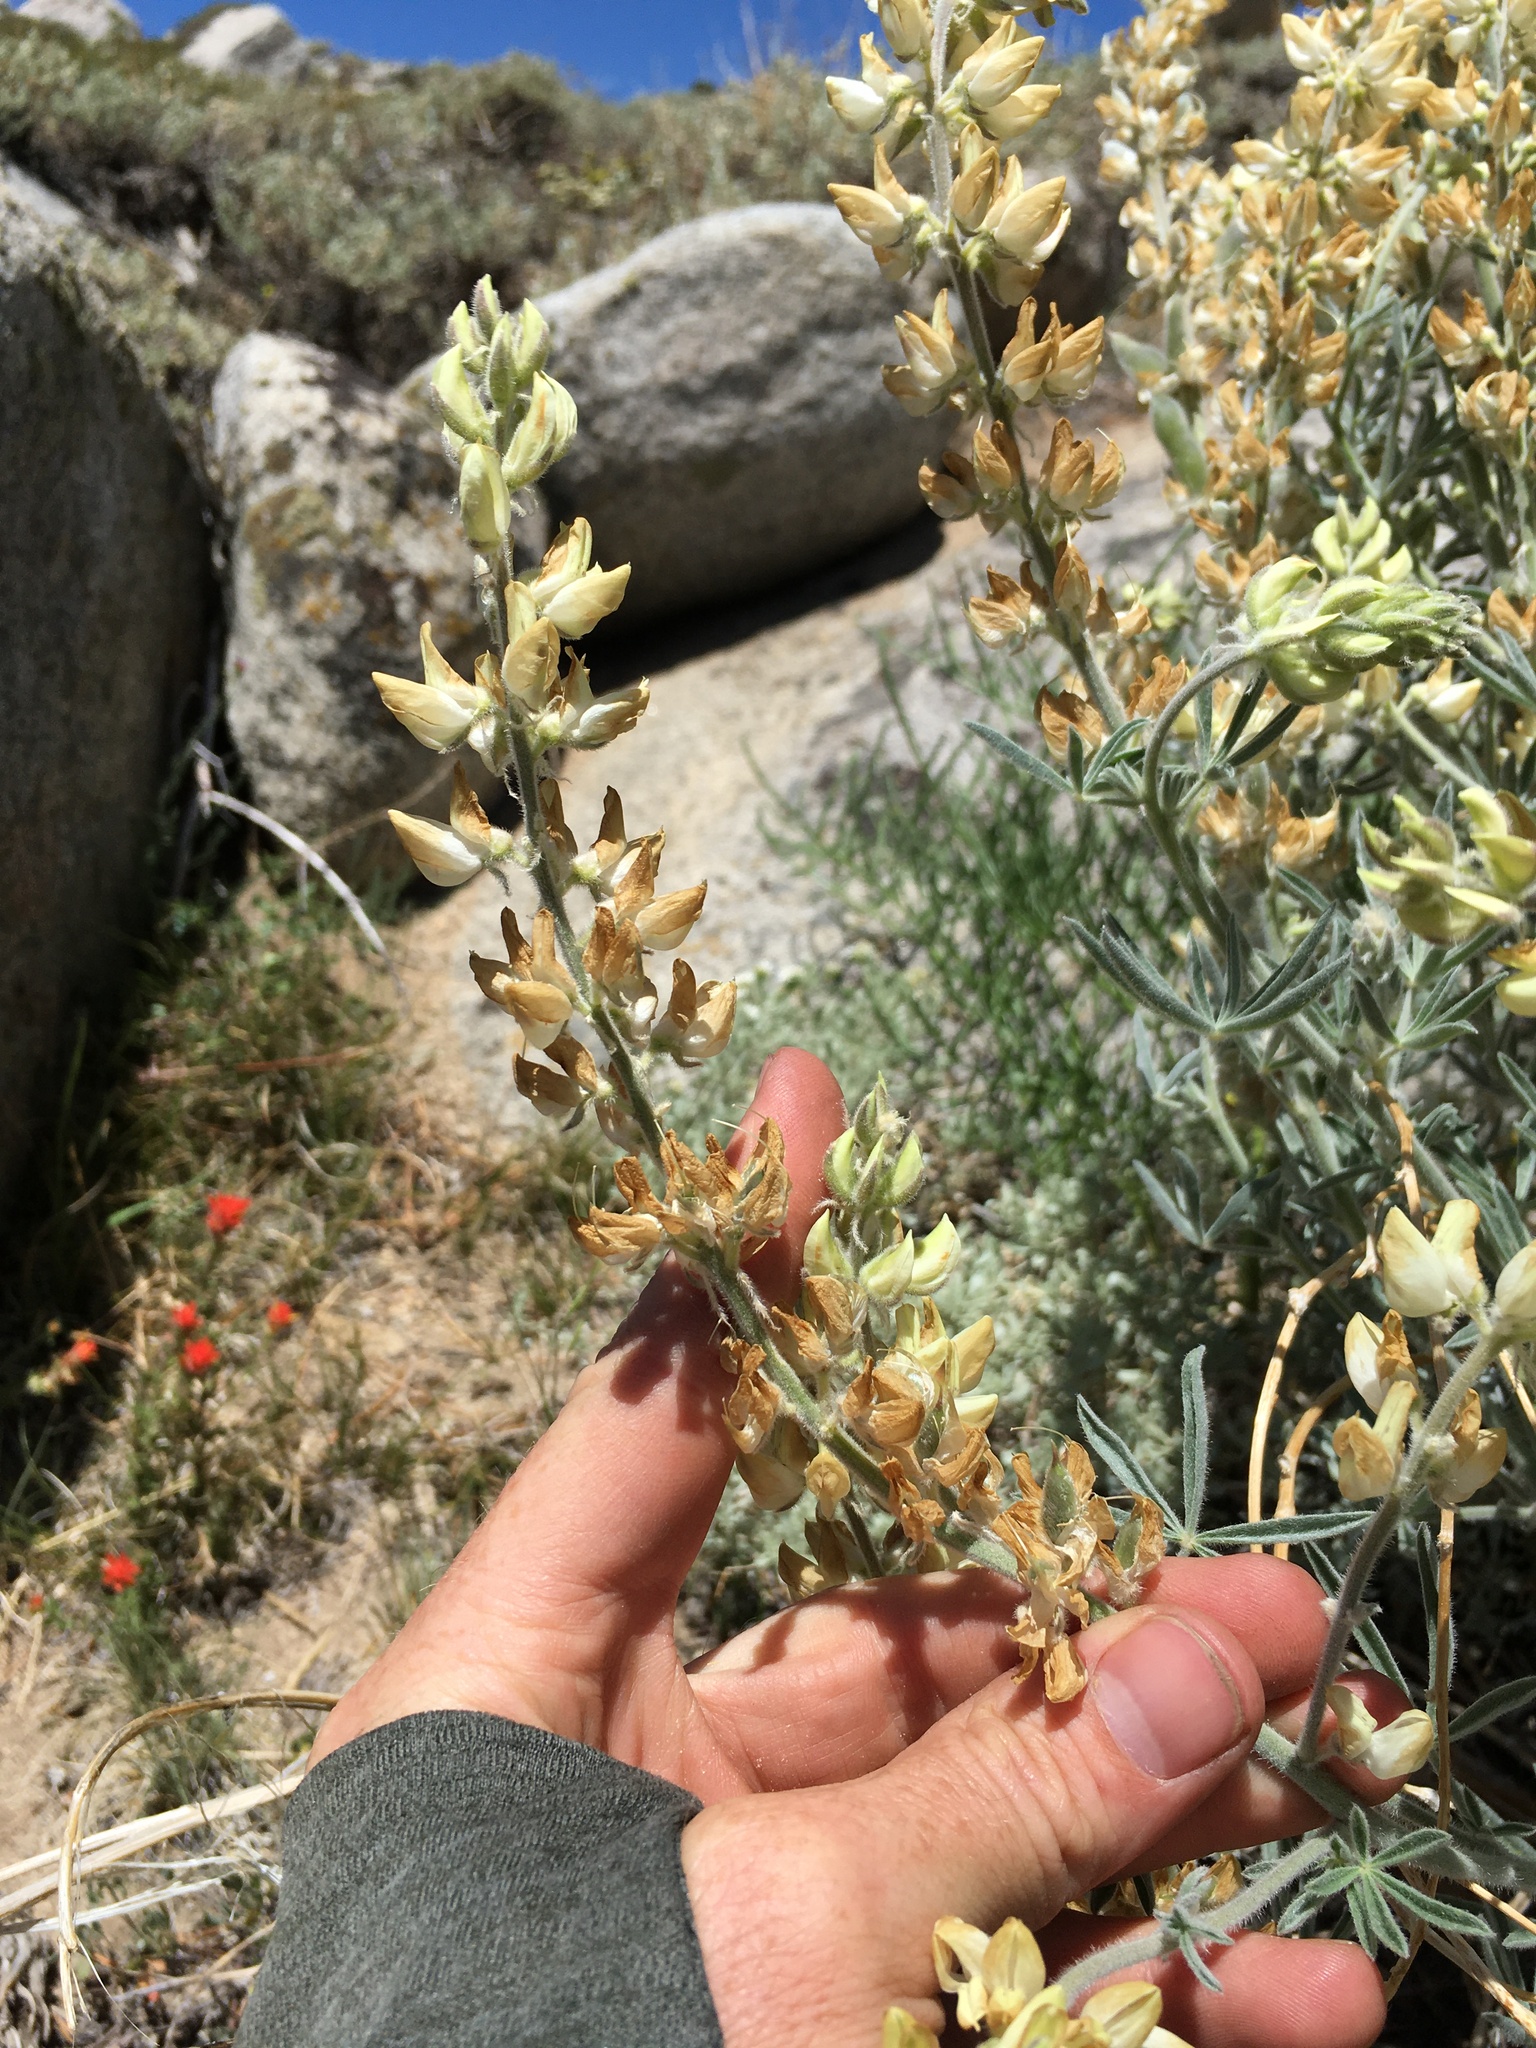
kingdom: Plantae
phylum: Tracheophyta
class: Magnoliopsida
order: Fabales
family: Fabaceae
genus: Lupinus
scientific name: Lupinus padre-crowleyi
